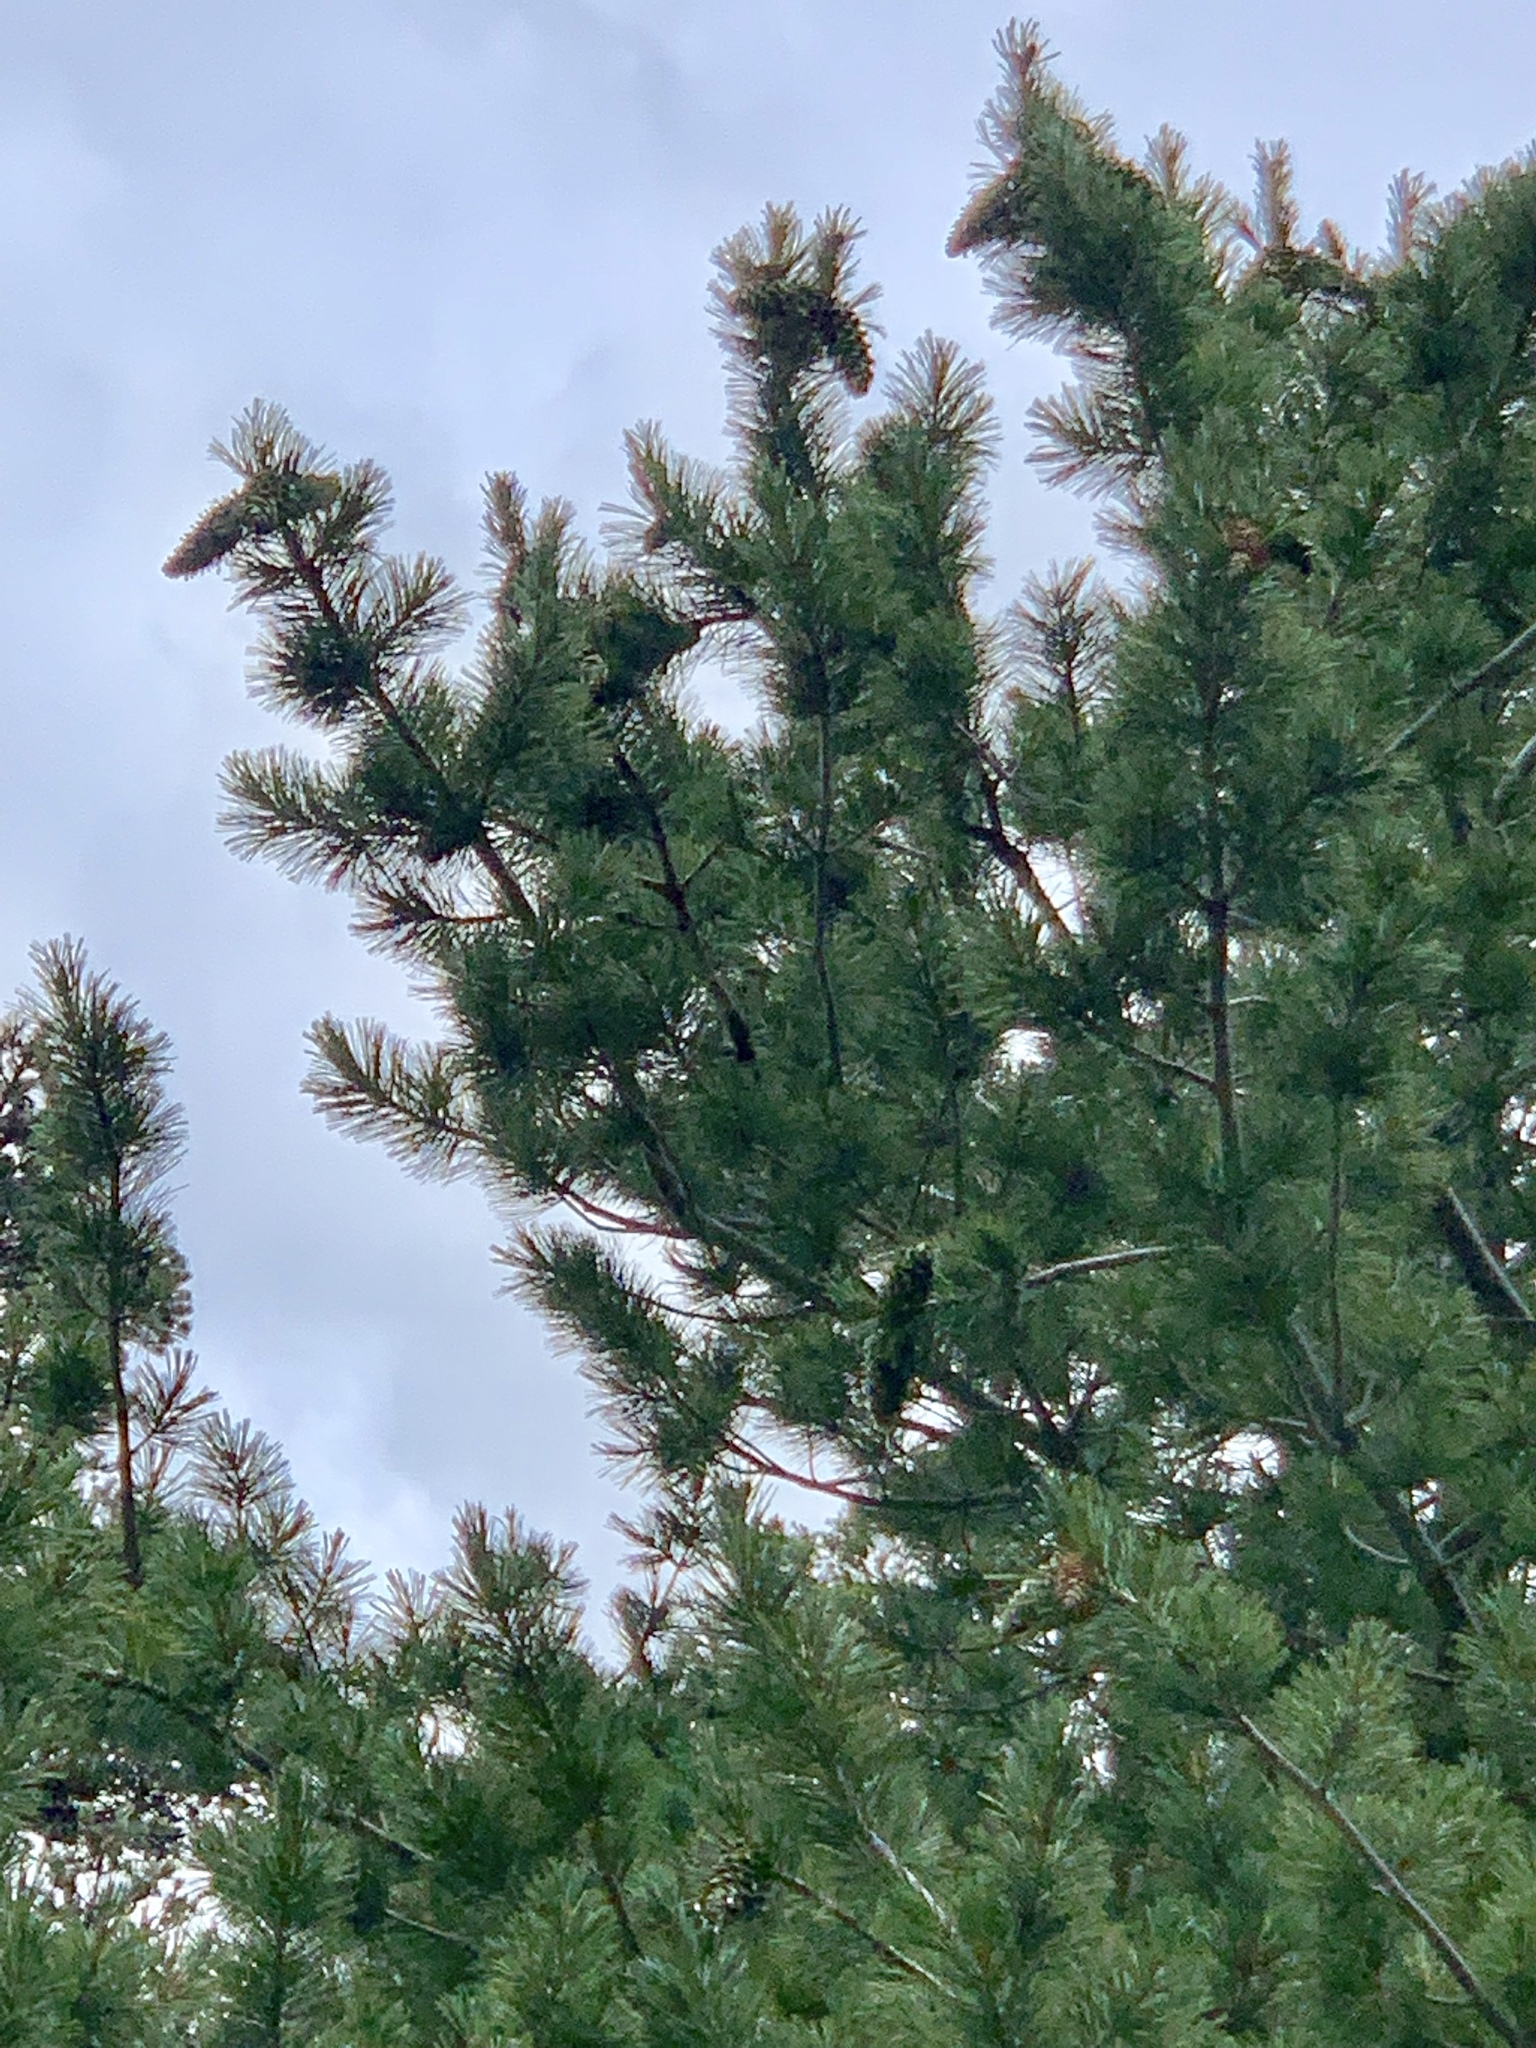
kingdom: Plantae
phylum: Tracheophyta
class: Pinopsida
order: Pinales
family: Pinaceae
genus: Pinus
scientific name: Pinus strobiformis
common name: Southwestern white pine
